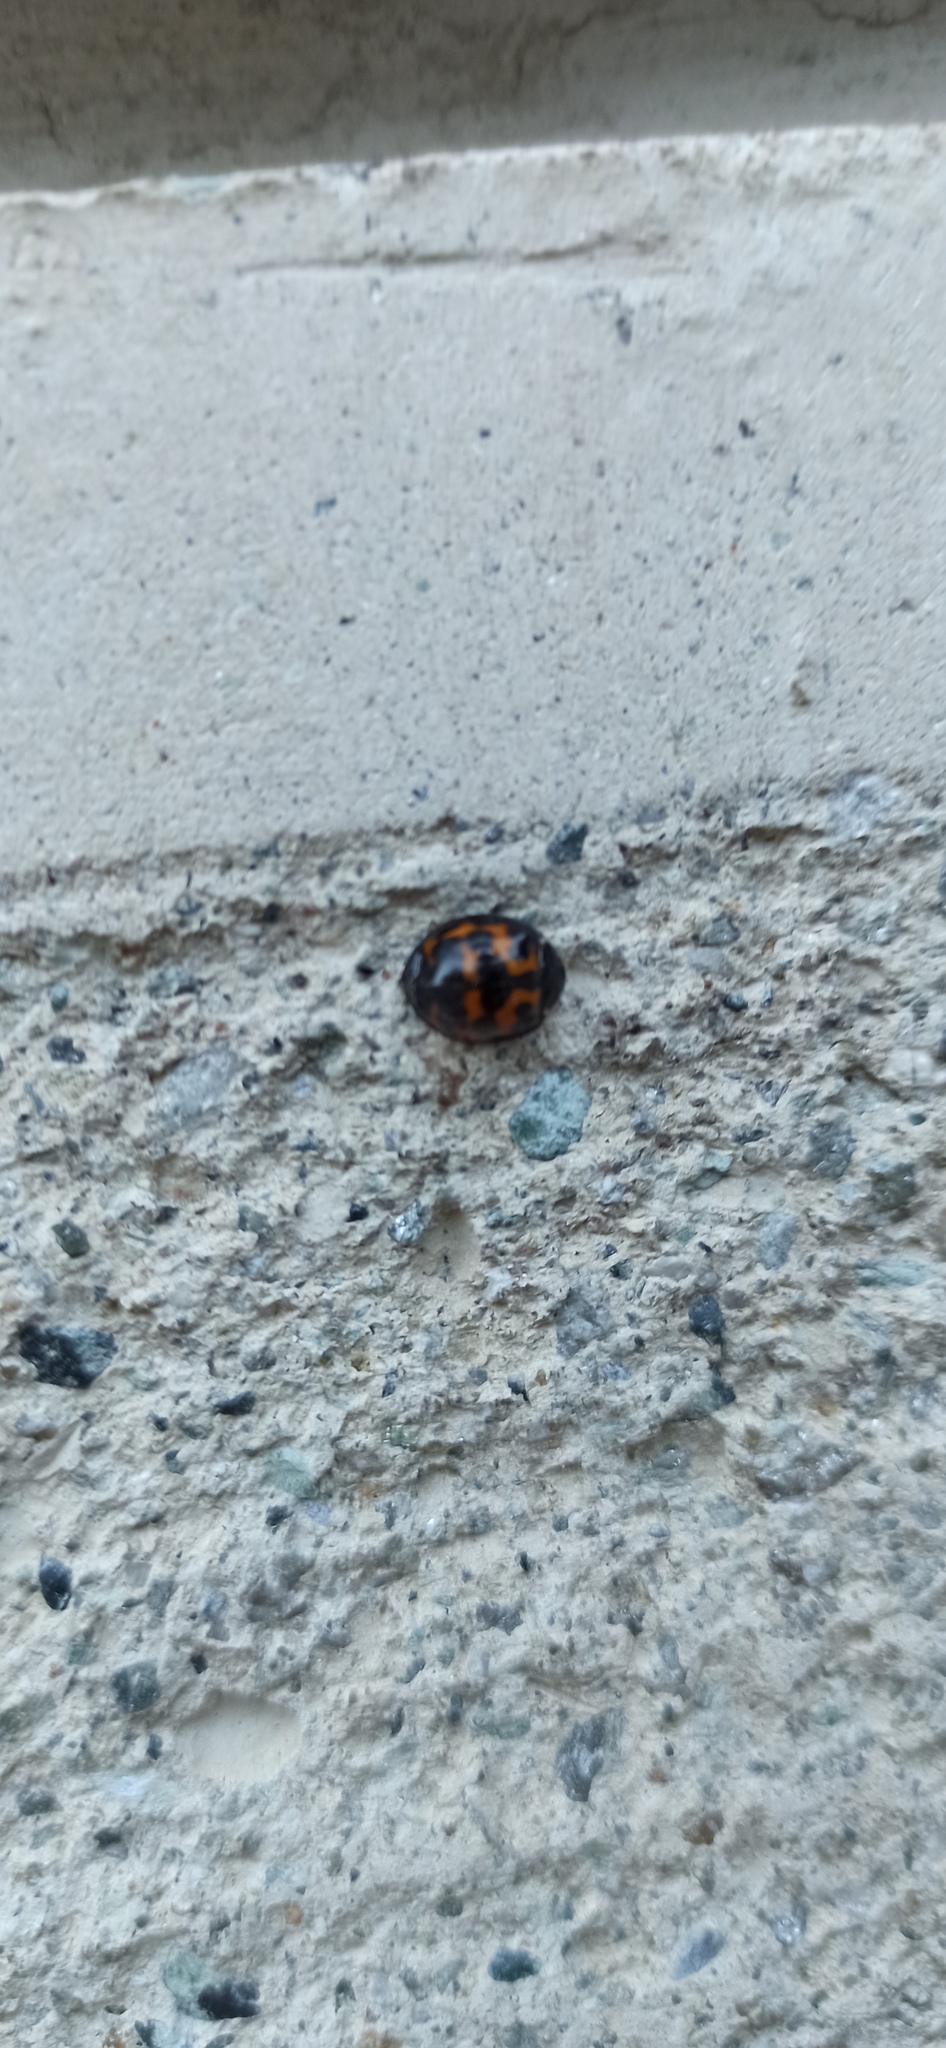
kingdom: Animalia
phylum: Arthropoda
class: Insecta
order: Coleoptera
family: Coccinellidae
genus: Harmonia
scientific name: Harmonia axyridis
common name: Harlequin ladybird
